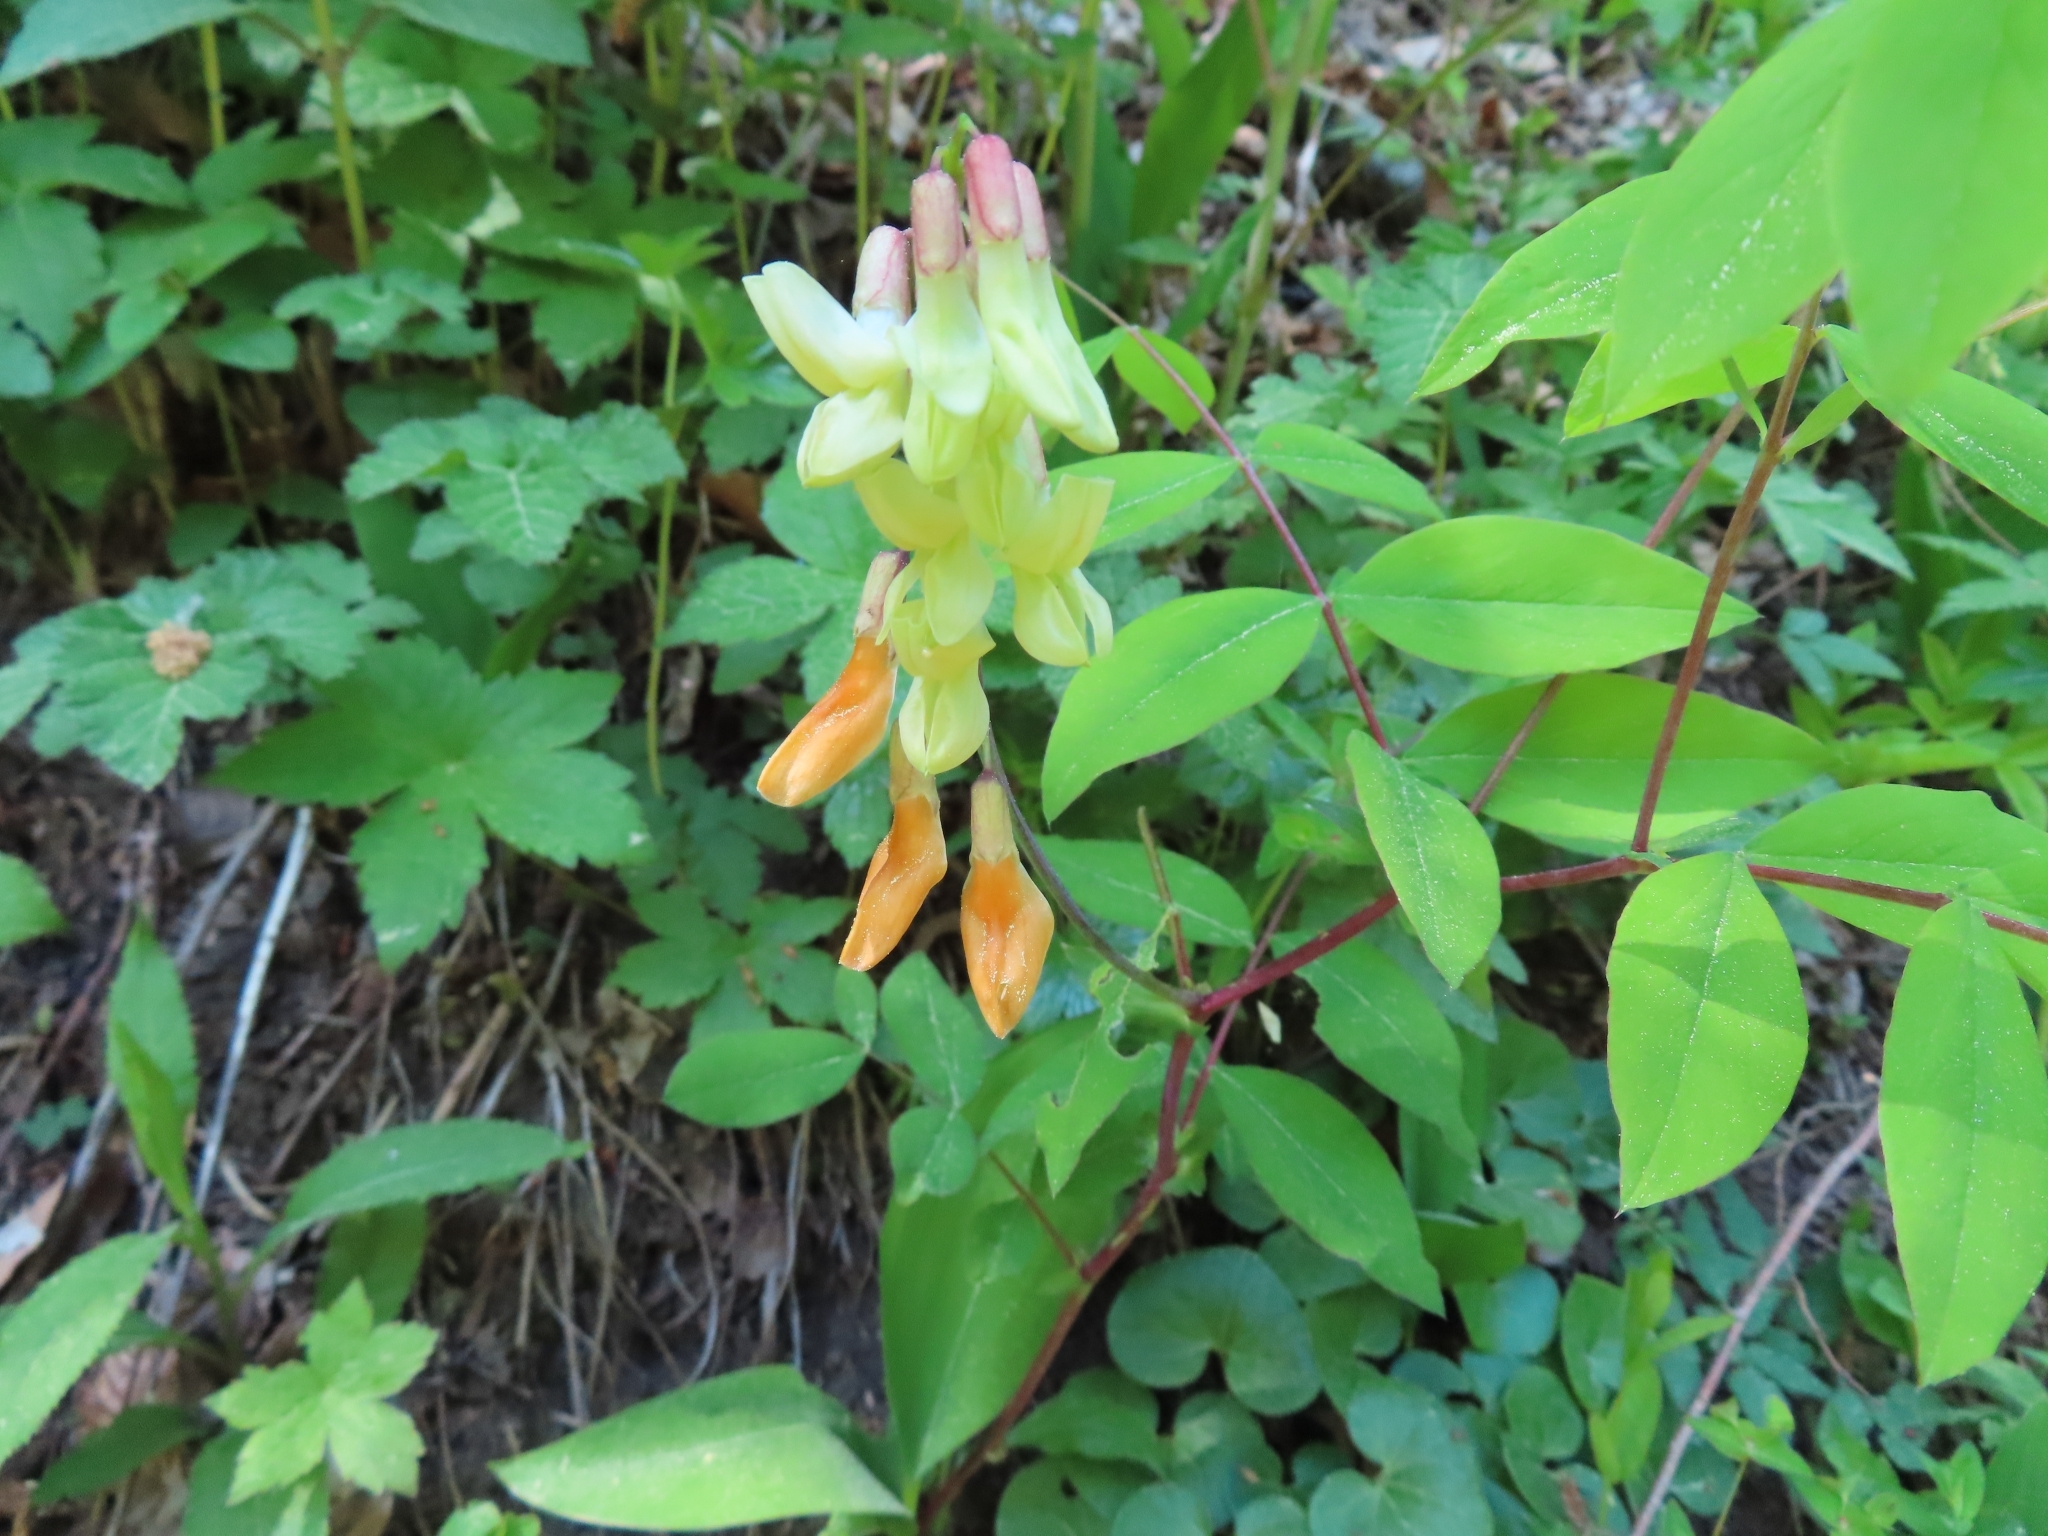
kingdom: Plantae
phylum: Tracheophyta
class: Magnoliopsida
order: Fabales
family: Fabaceae
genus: Lathyrus
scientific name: Lathyrus laevigatus
